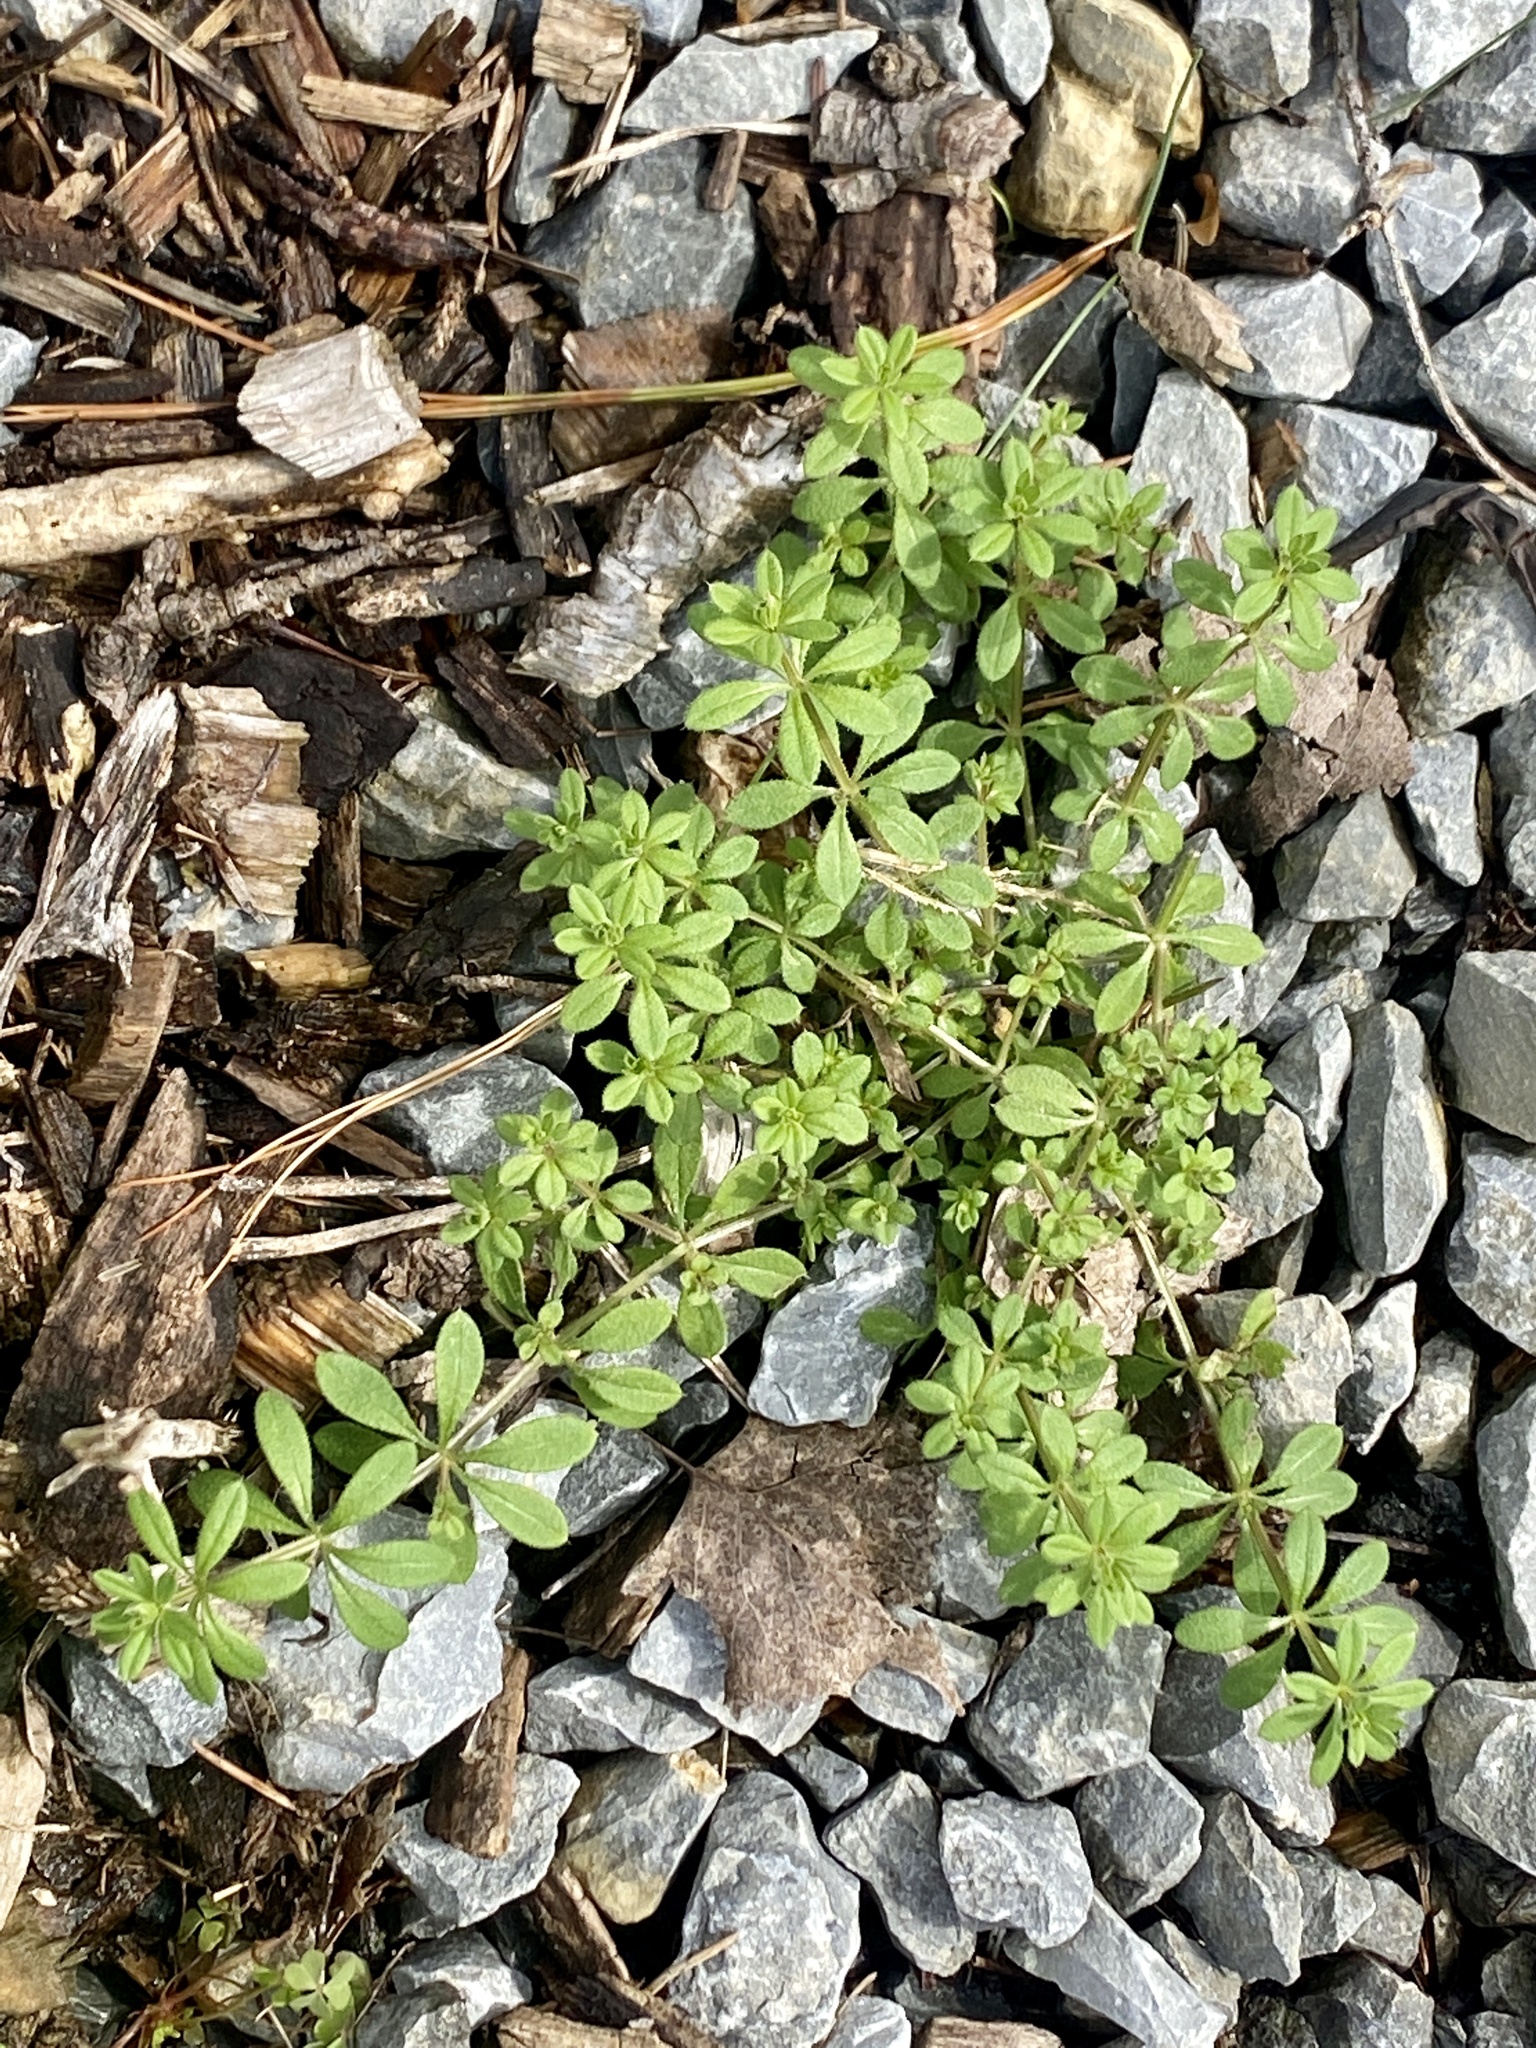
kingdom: Plantae
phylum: Tracheophyta
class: Magnoliopsida
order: Gentianales
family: Rubiaceae
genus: Galium
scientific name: Galium aparine
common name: Cleavers
